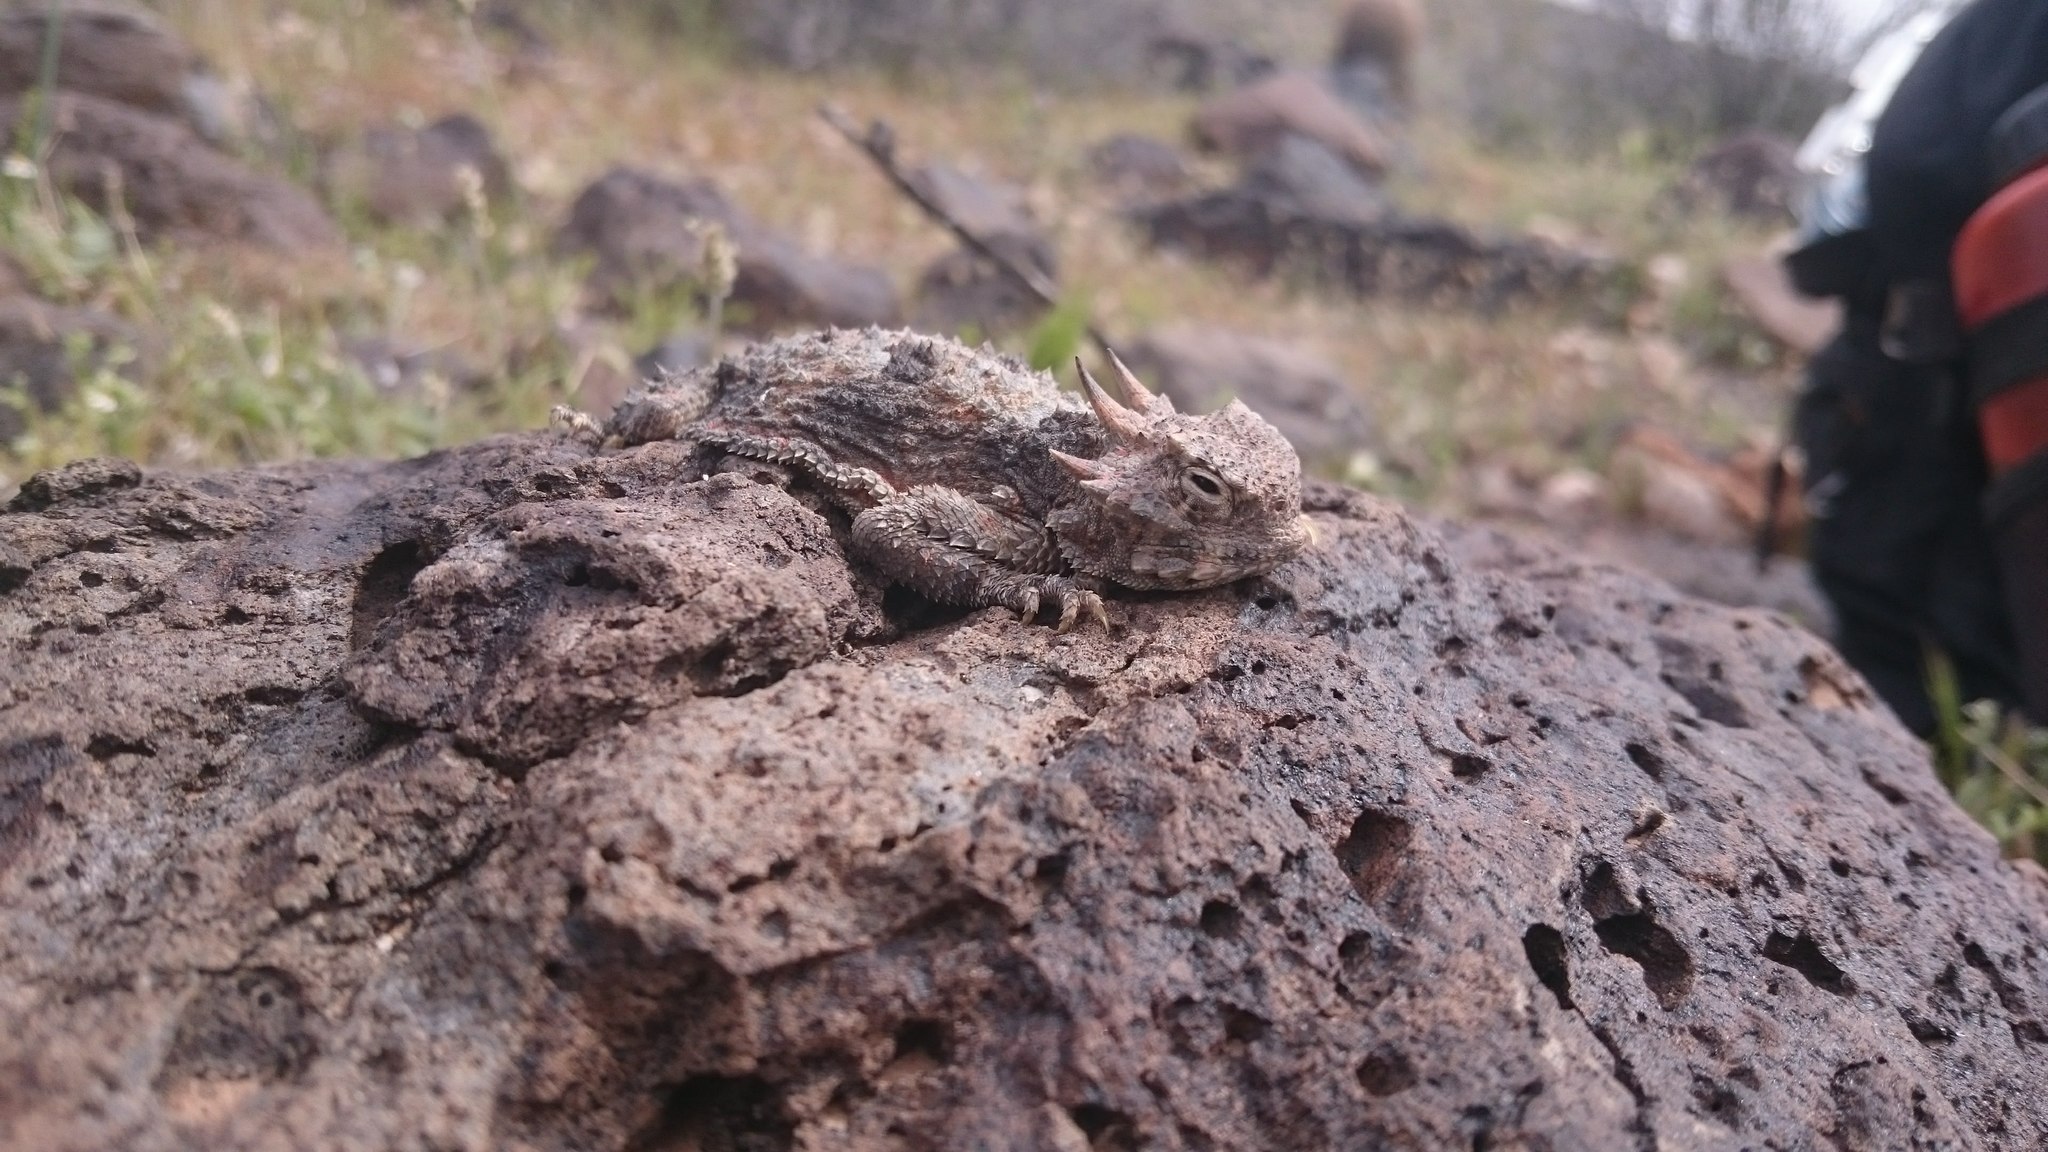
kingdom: Animalia
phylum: Chordata
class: Squamata
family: Phrynosomatidae
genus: Phrynosoma
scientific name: Phrynosoma platyrhinos
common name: Desert horned lizard
